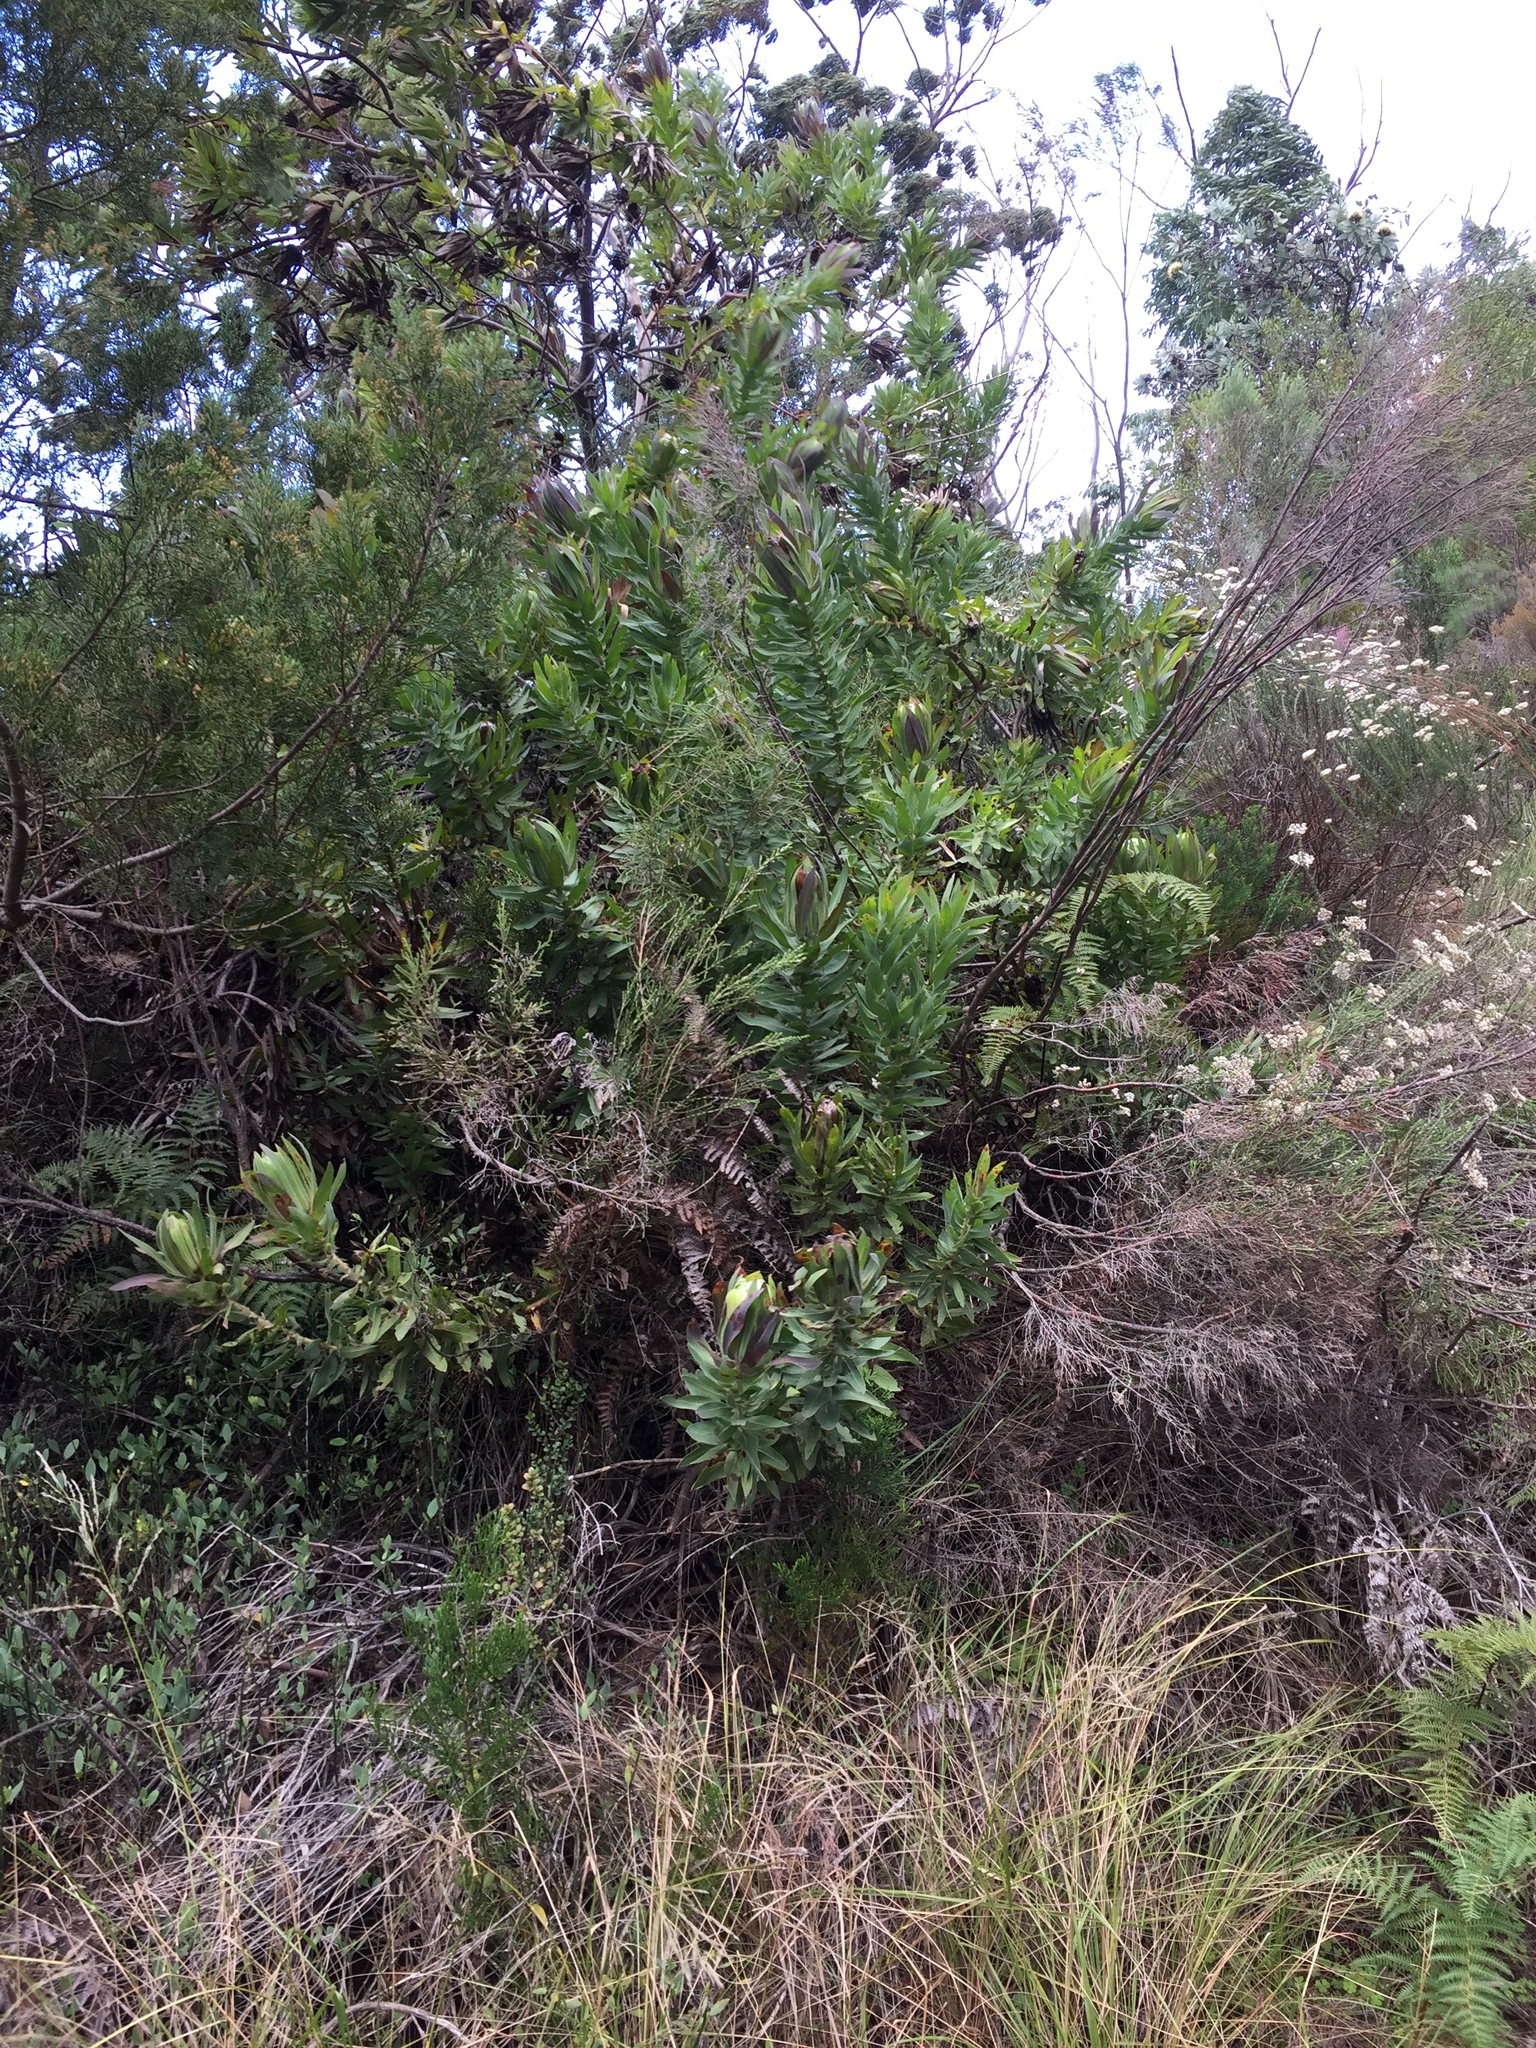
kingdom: Plantae
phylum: Tracheophyta
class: Magnoliopsida
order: Proteales
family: Proteaceae
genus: Protea
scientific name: Protea coronata
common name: Green sugarbush
